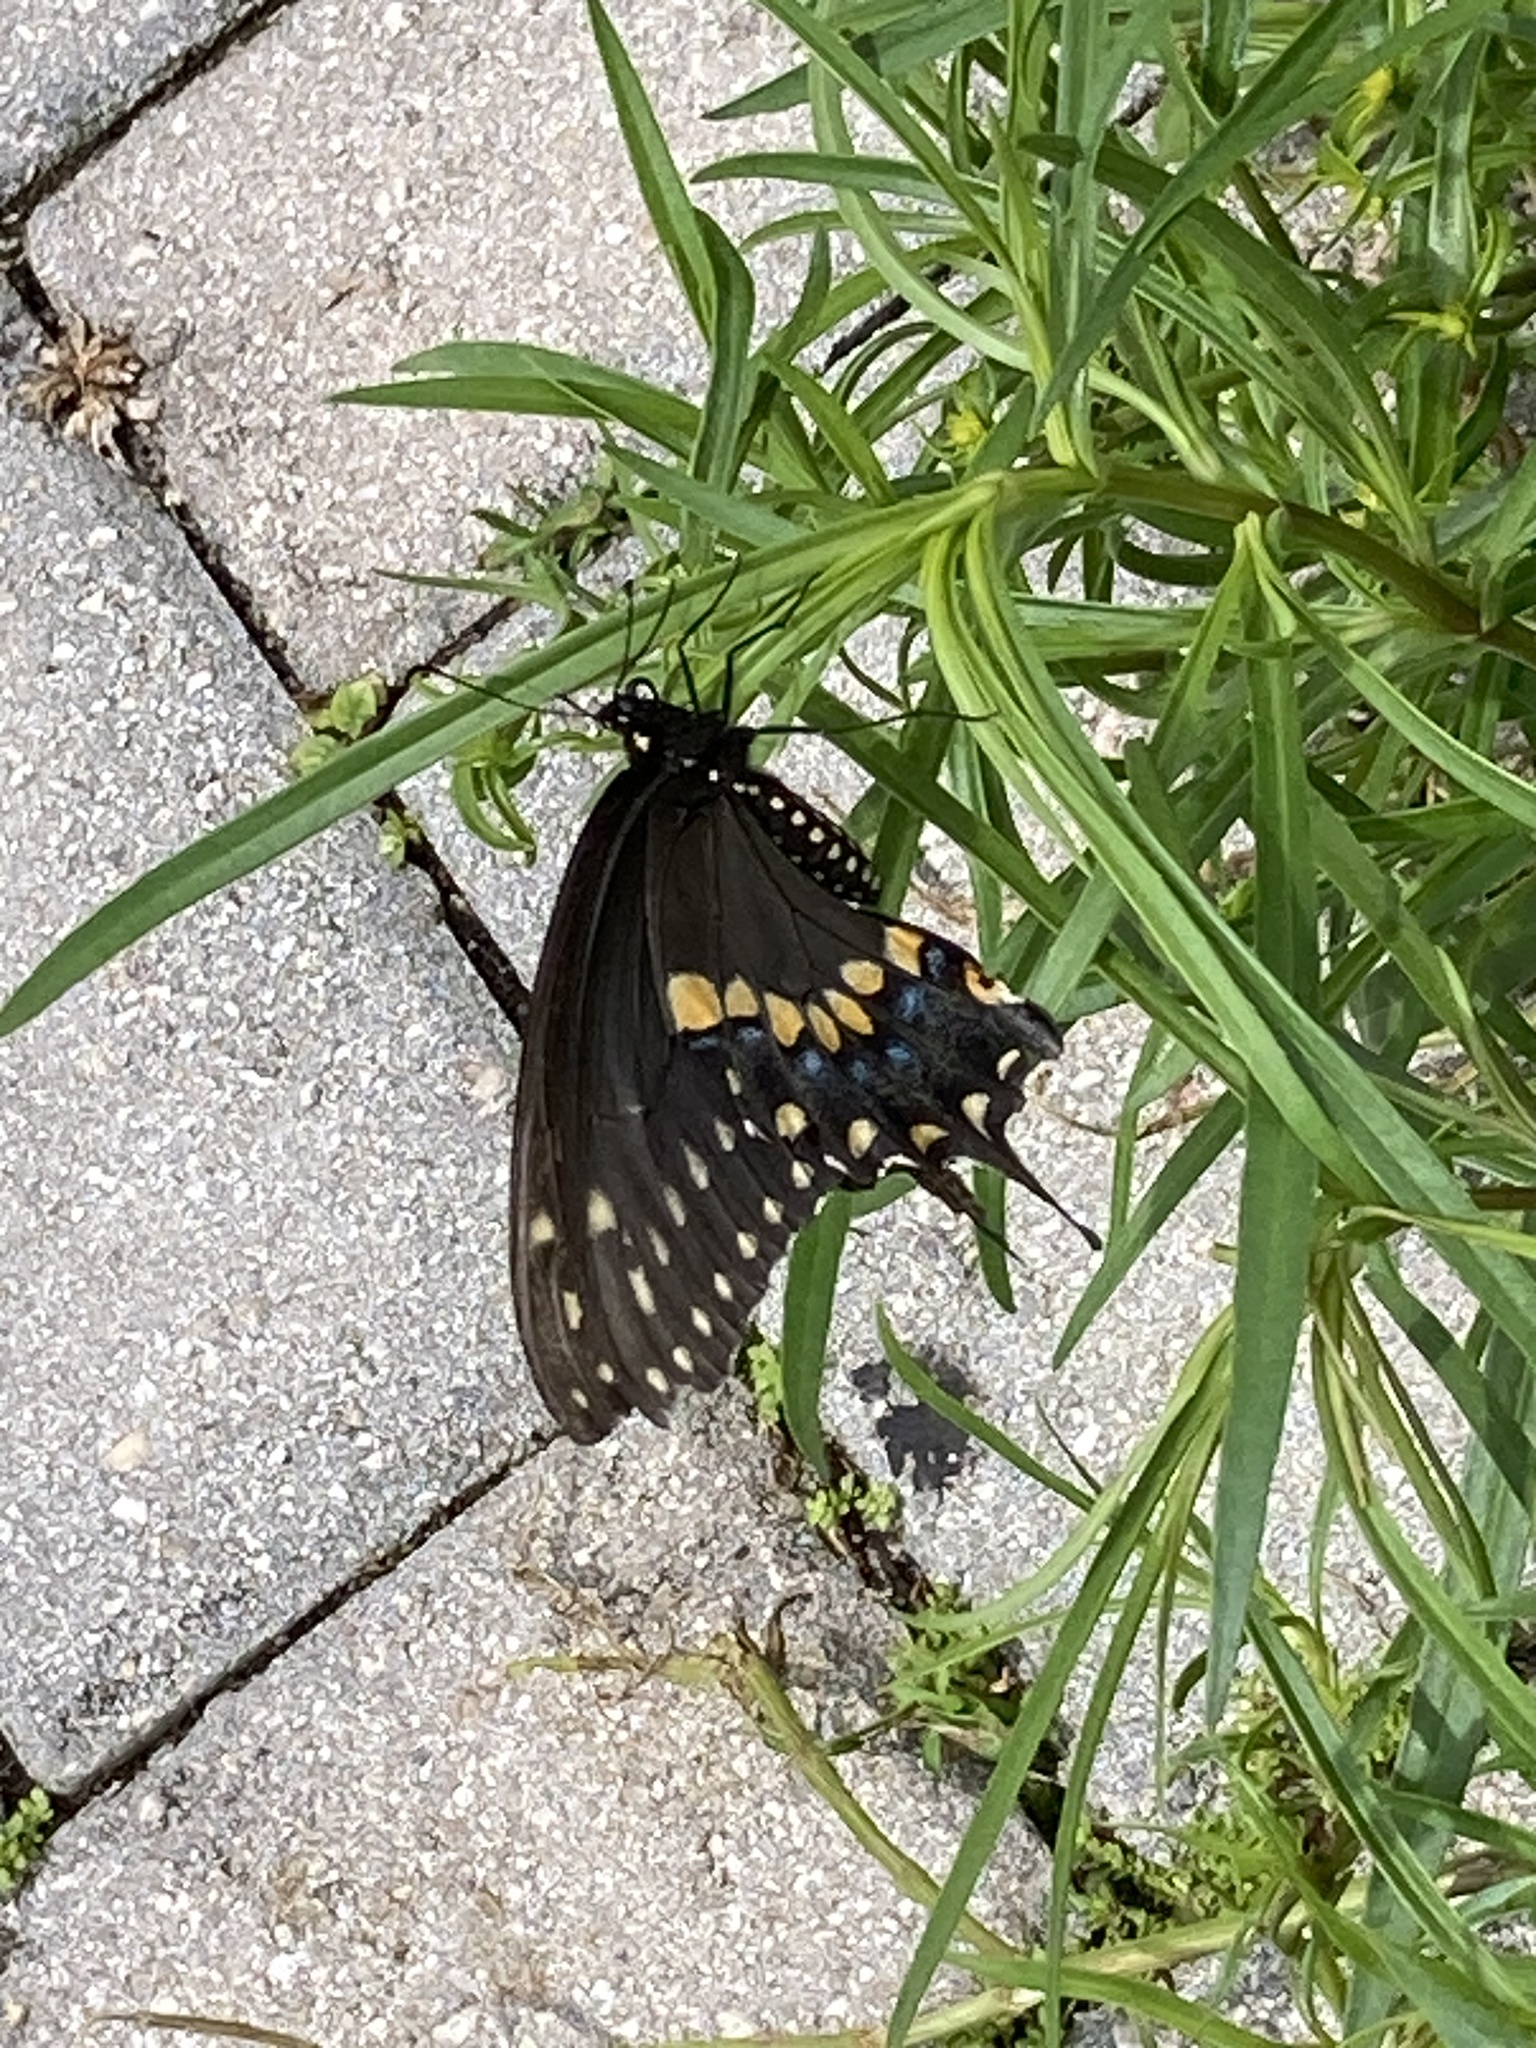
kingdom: Animalia
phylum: Arthropoda
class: Insecta
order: Lepidoptera
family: Papilionidae
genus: Papilio
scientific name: Papilio polyxenes
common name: Black swallowtail
